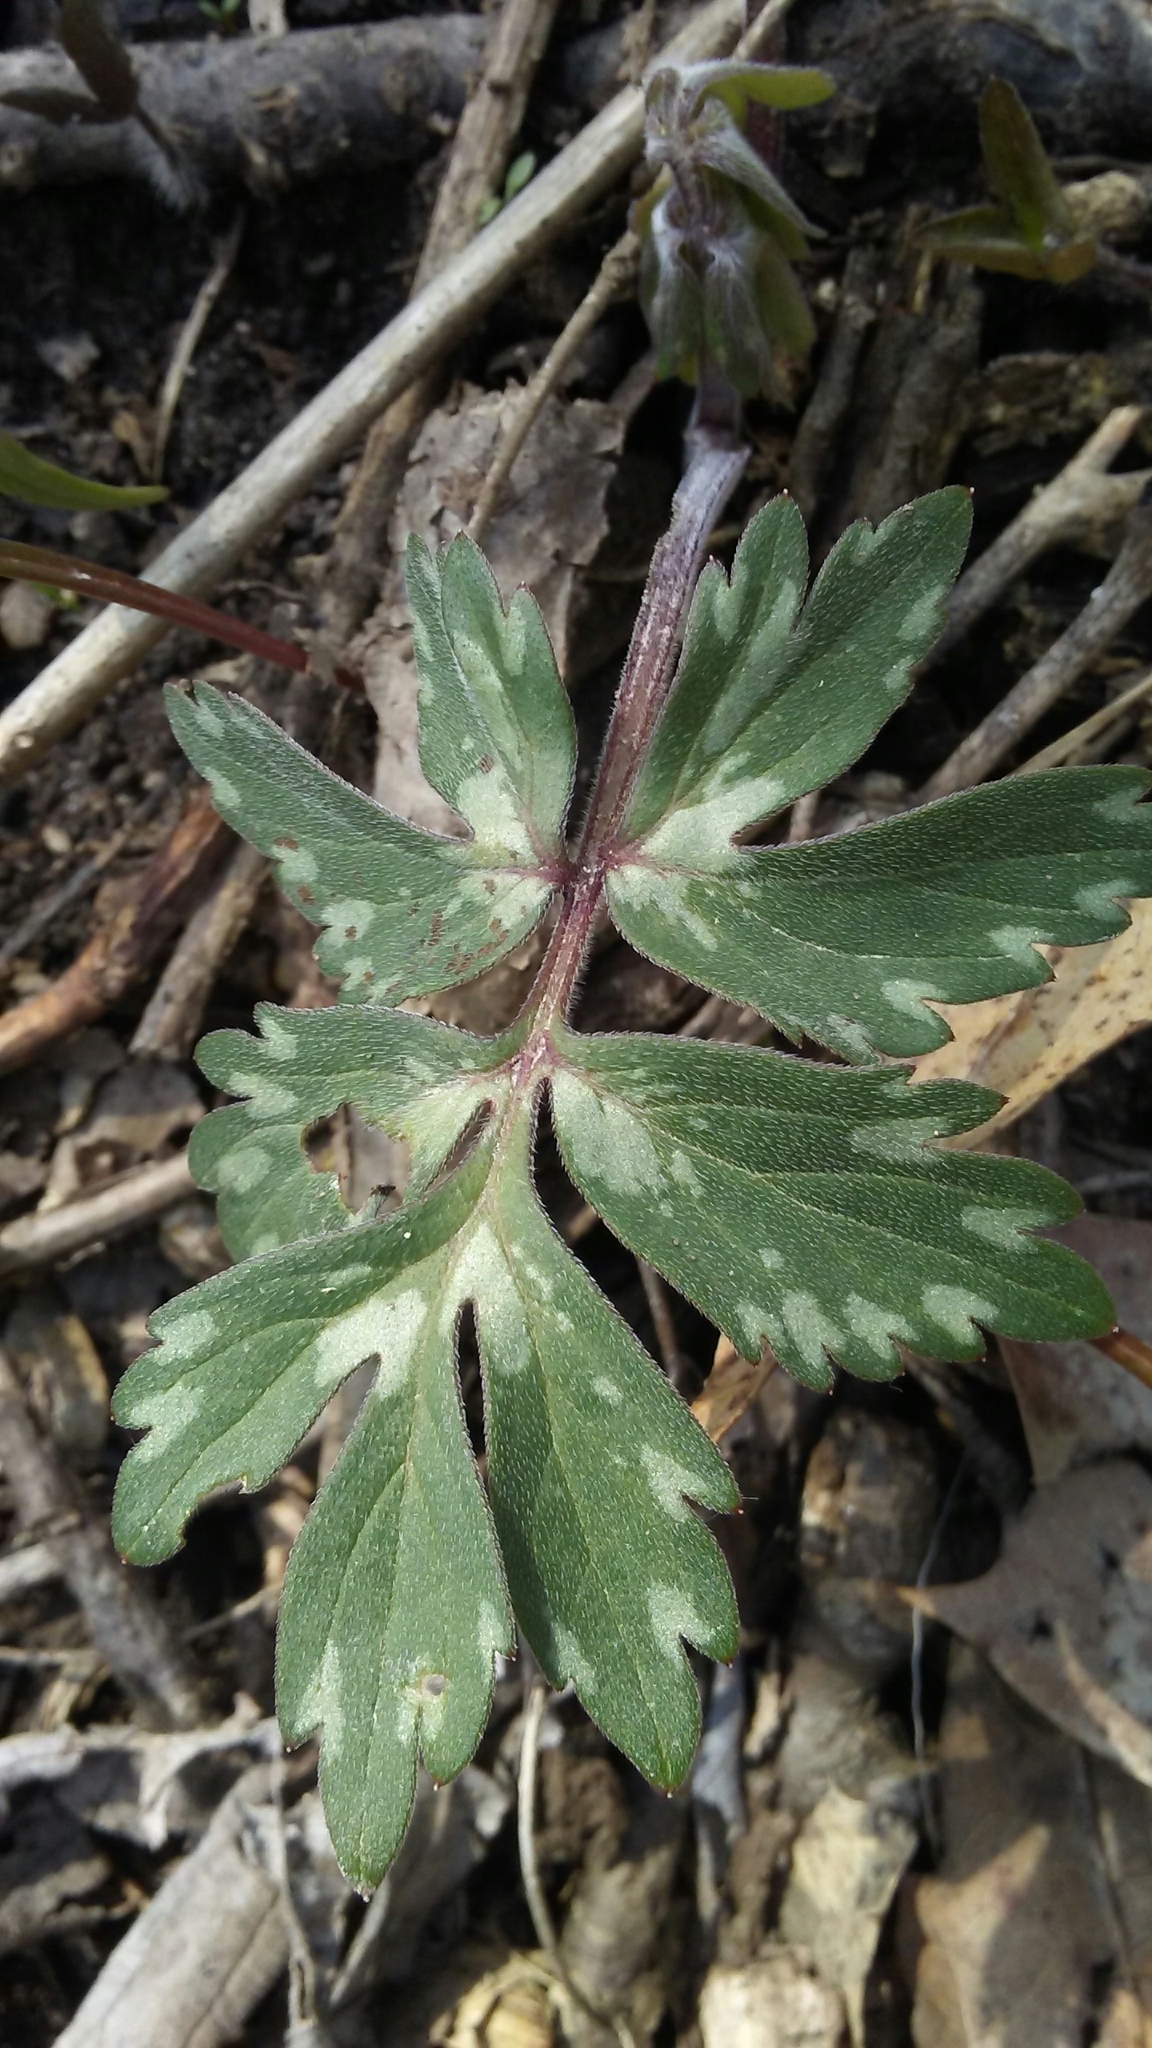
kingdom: Plantae
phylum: Tracheophyta
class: Magnoliopsida
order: Boraginales
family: Hydrophyllaceae
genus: Hydrophyllum
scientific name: Hydrophyllum virginianum
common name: Virginia waterleaf
